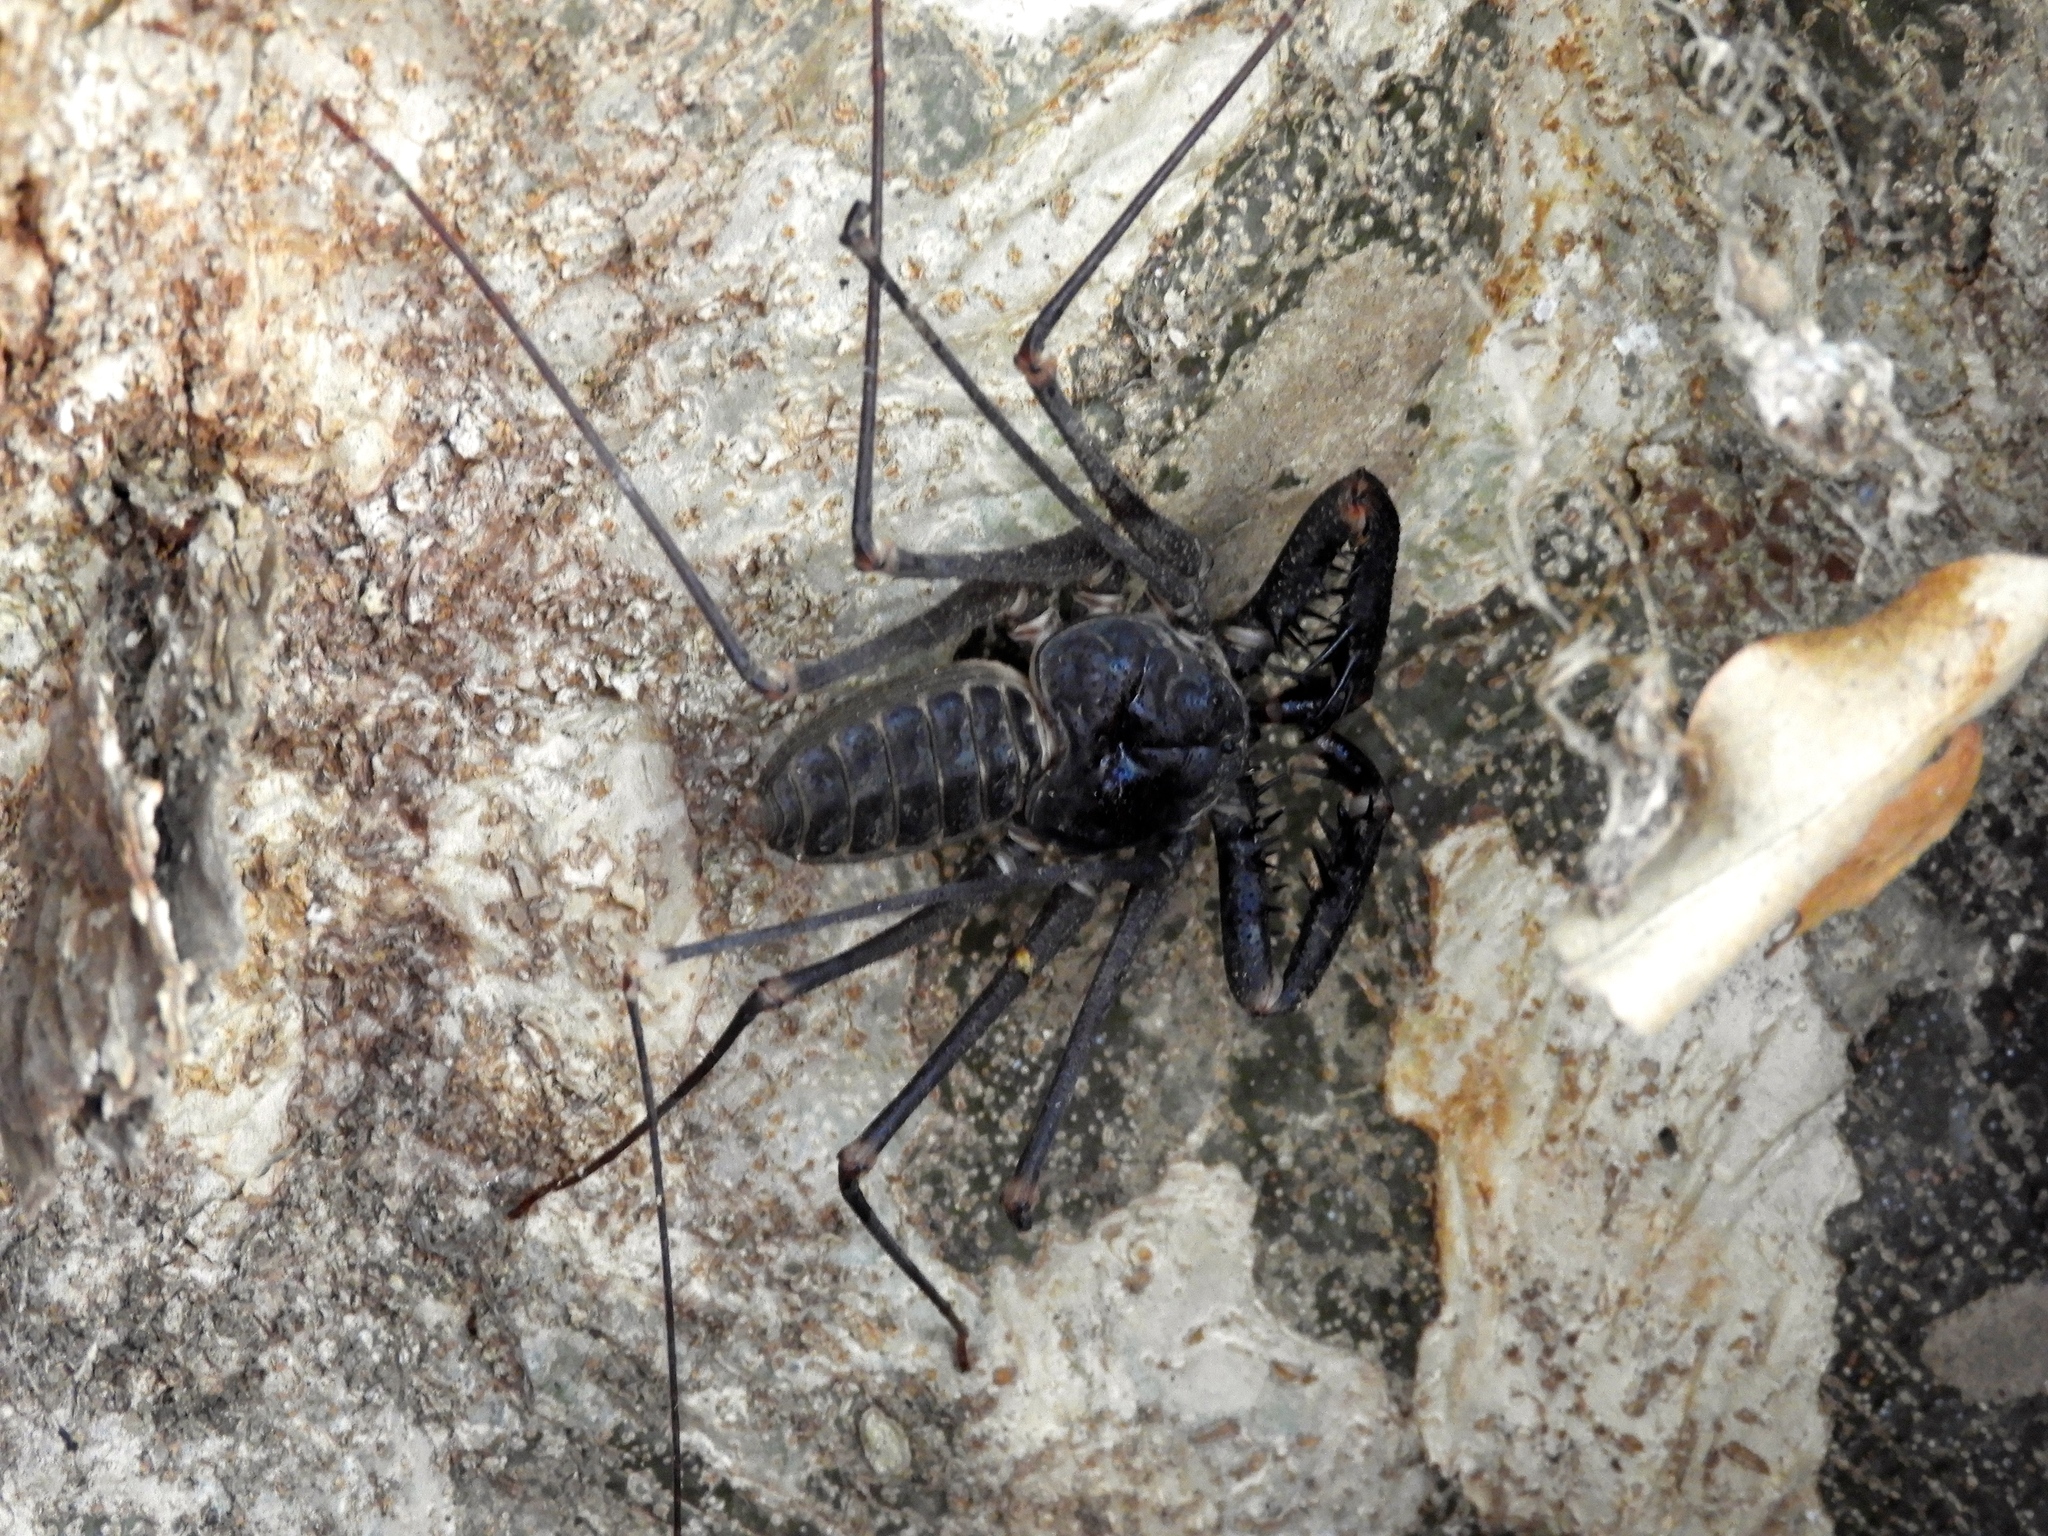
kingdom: Animalia
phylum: Arthropoda
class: Arachnida
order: Amblypygi
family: Phrynidae
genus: Acanthophrynus
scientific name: Acanthophrynus coronatus
